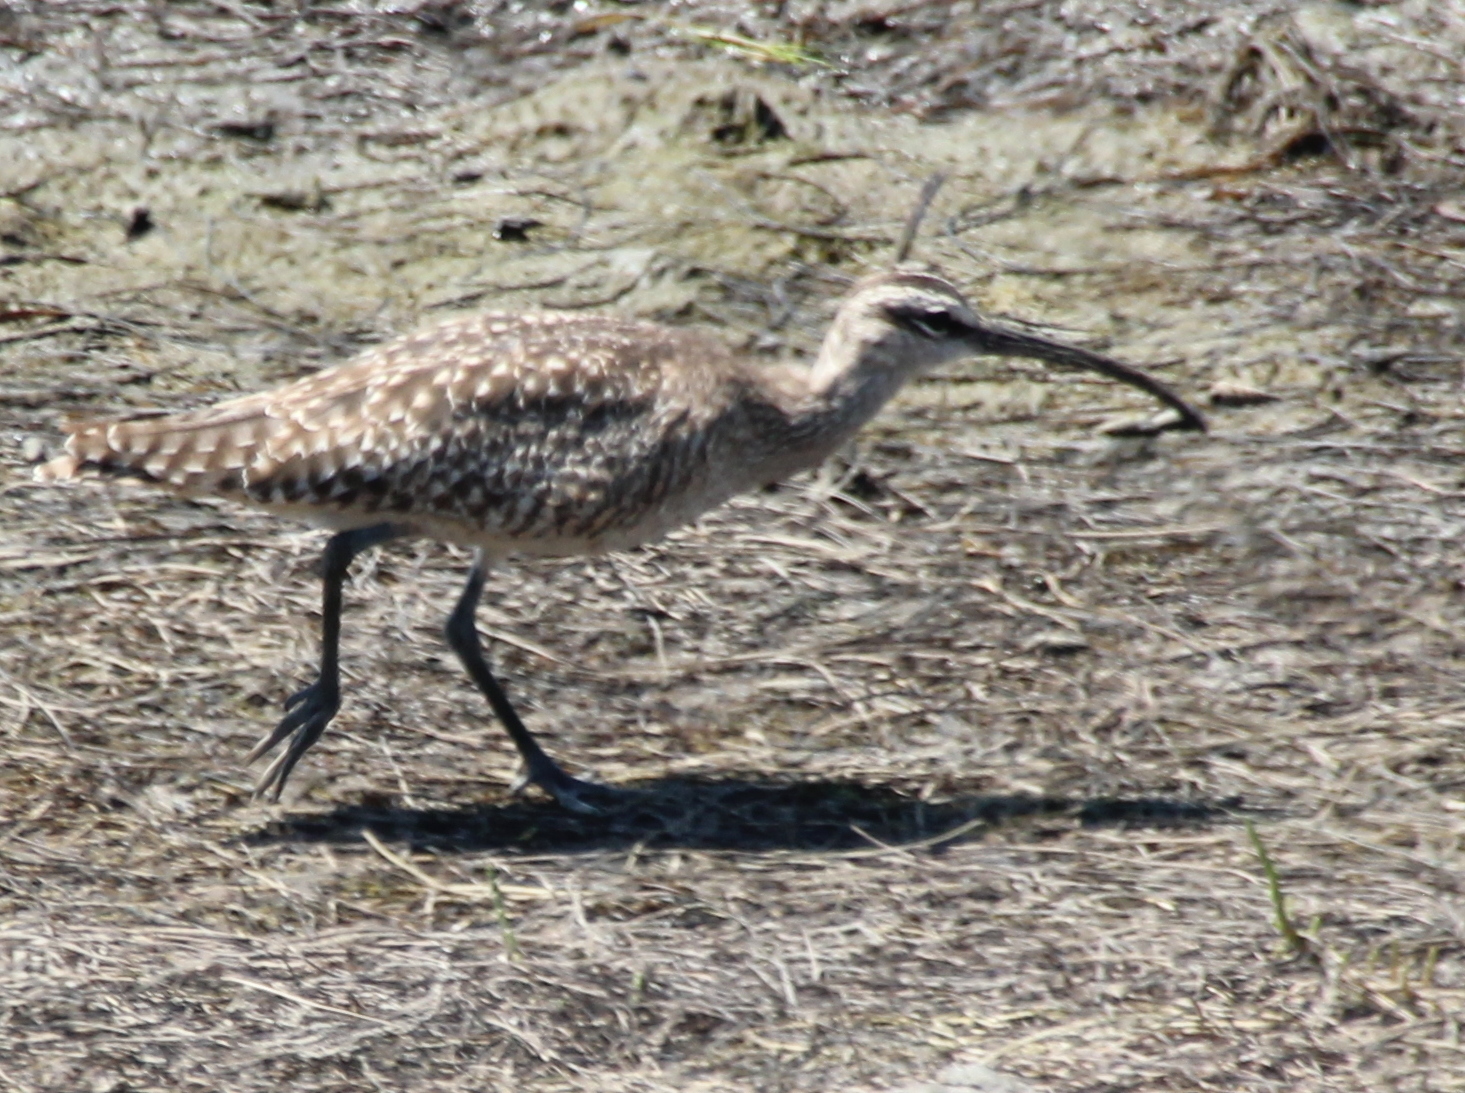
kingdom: Animalia
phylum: Chordata
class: Aves
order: Charadriiformes
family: Scolopacidae
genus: Numenius
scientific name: Numenius phaeopus
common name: Whimbrel
